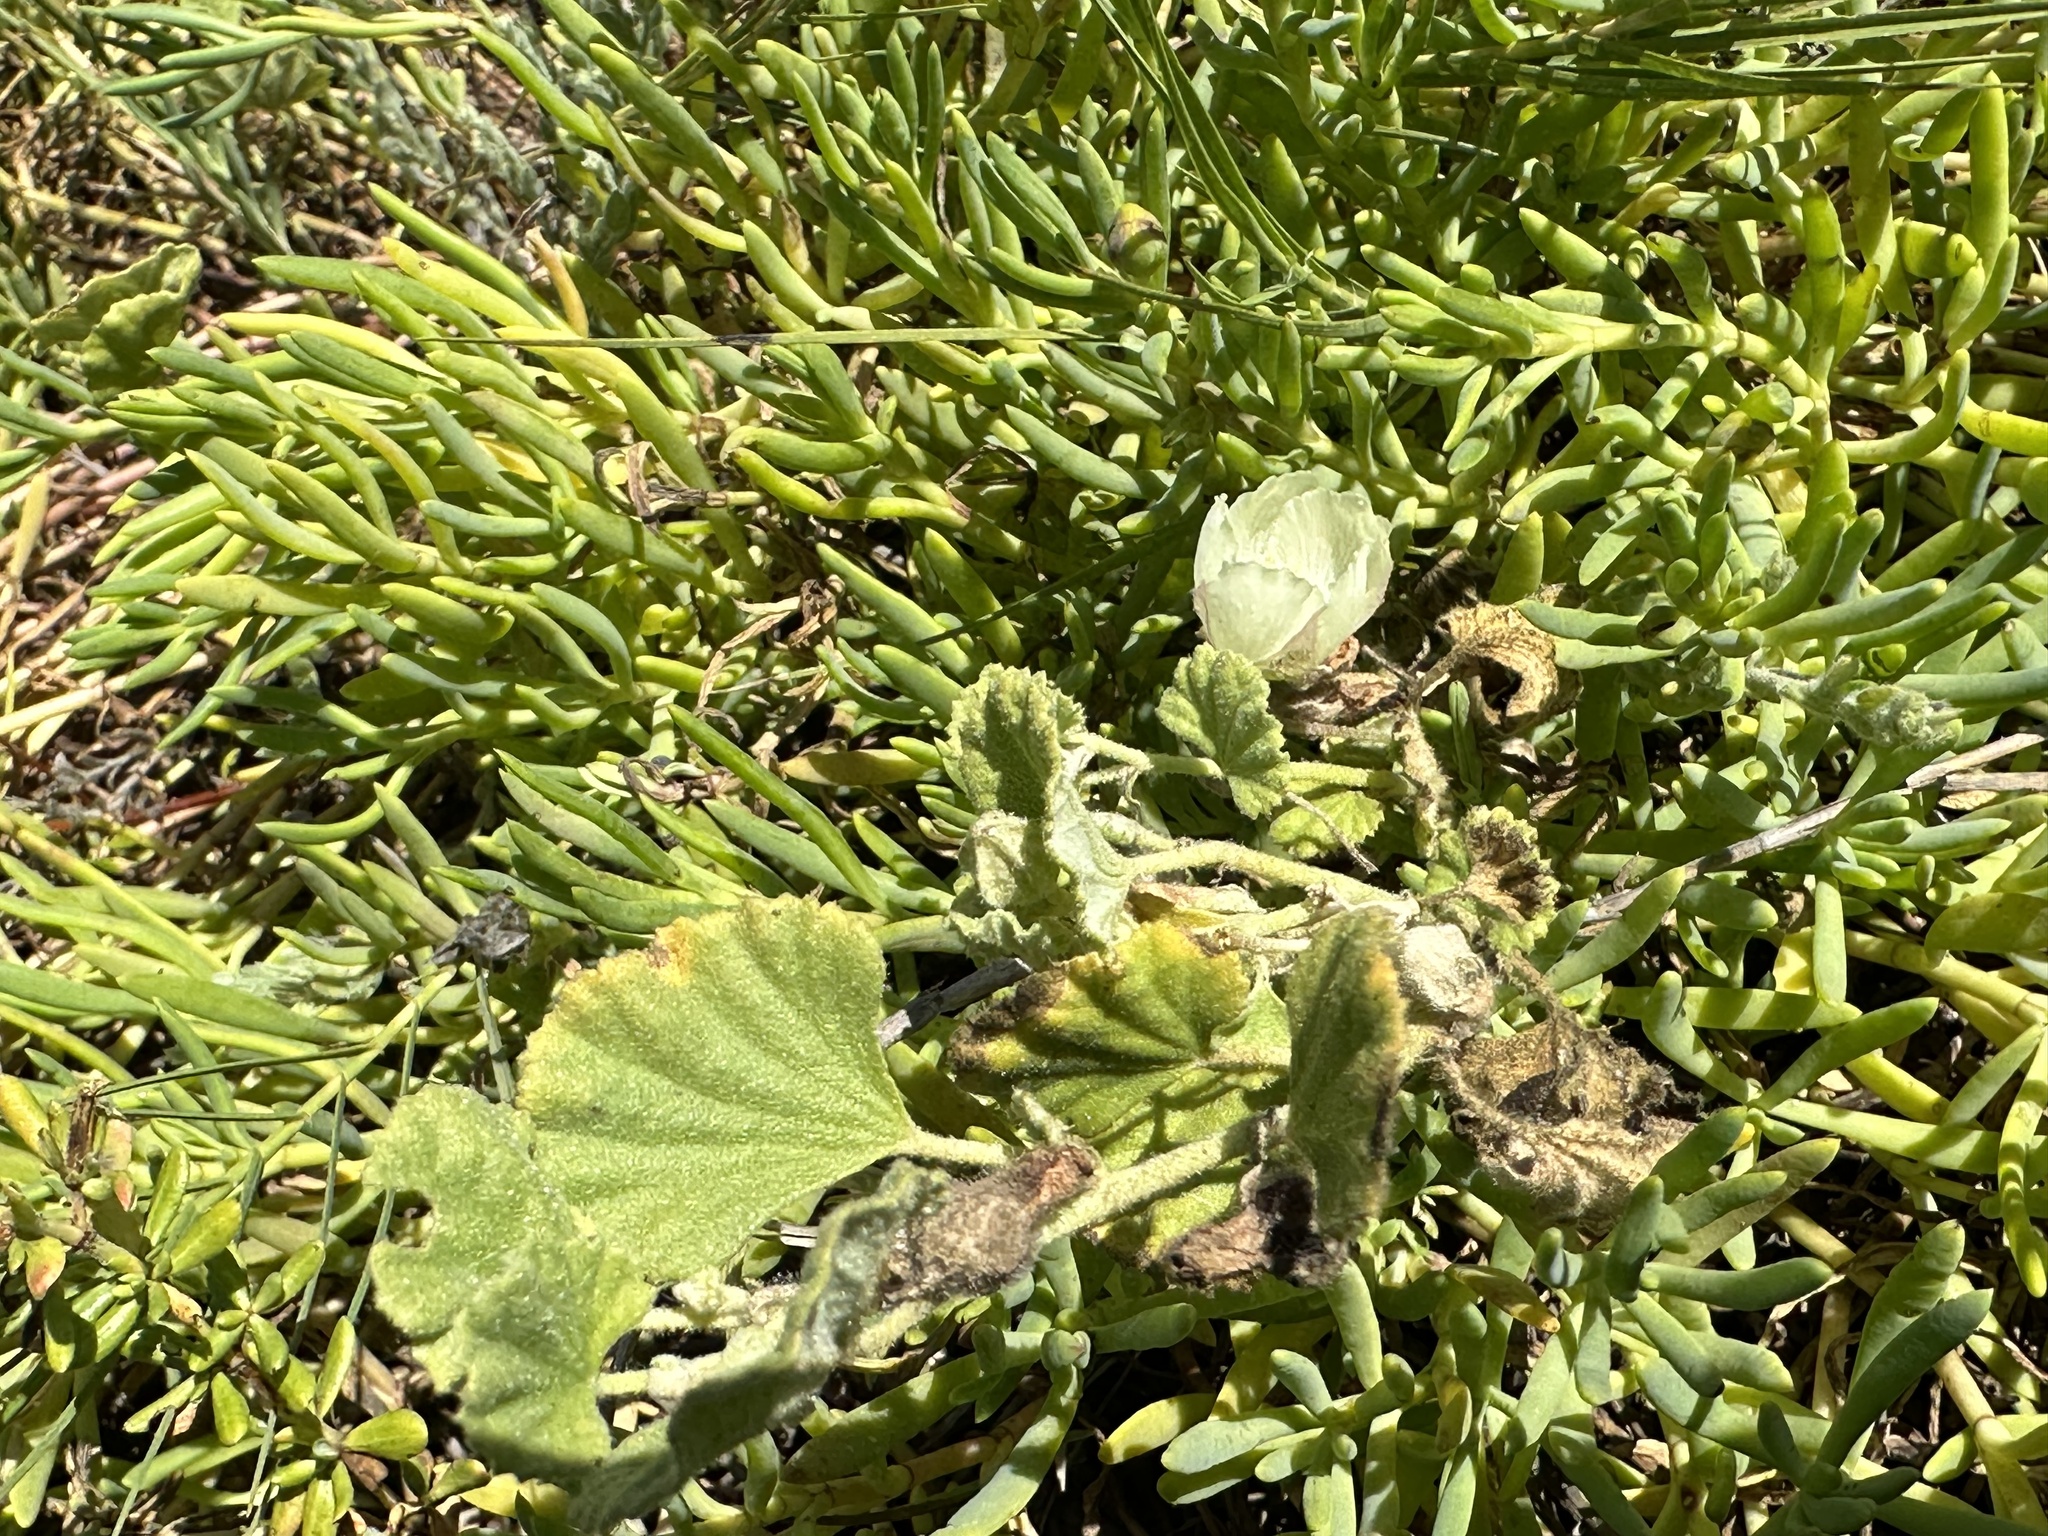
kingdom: Plantae
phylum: Tracheophyta
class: Magnoliopsida
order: Malvales
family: Malvaceae
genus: Malvella
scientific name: Malvella leprosa
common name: Alkali-mallow
